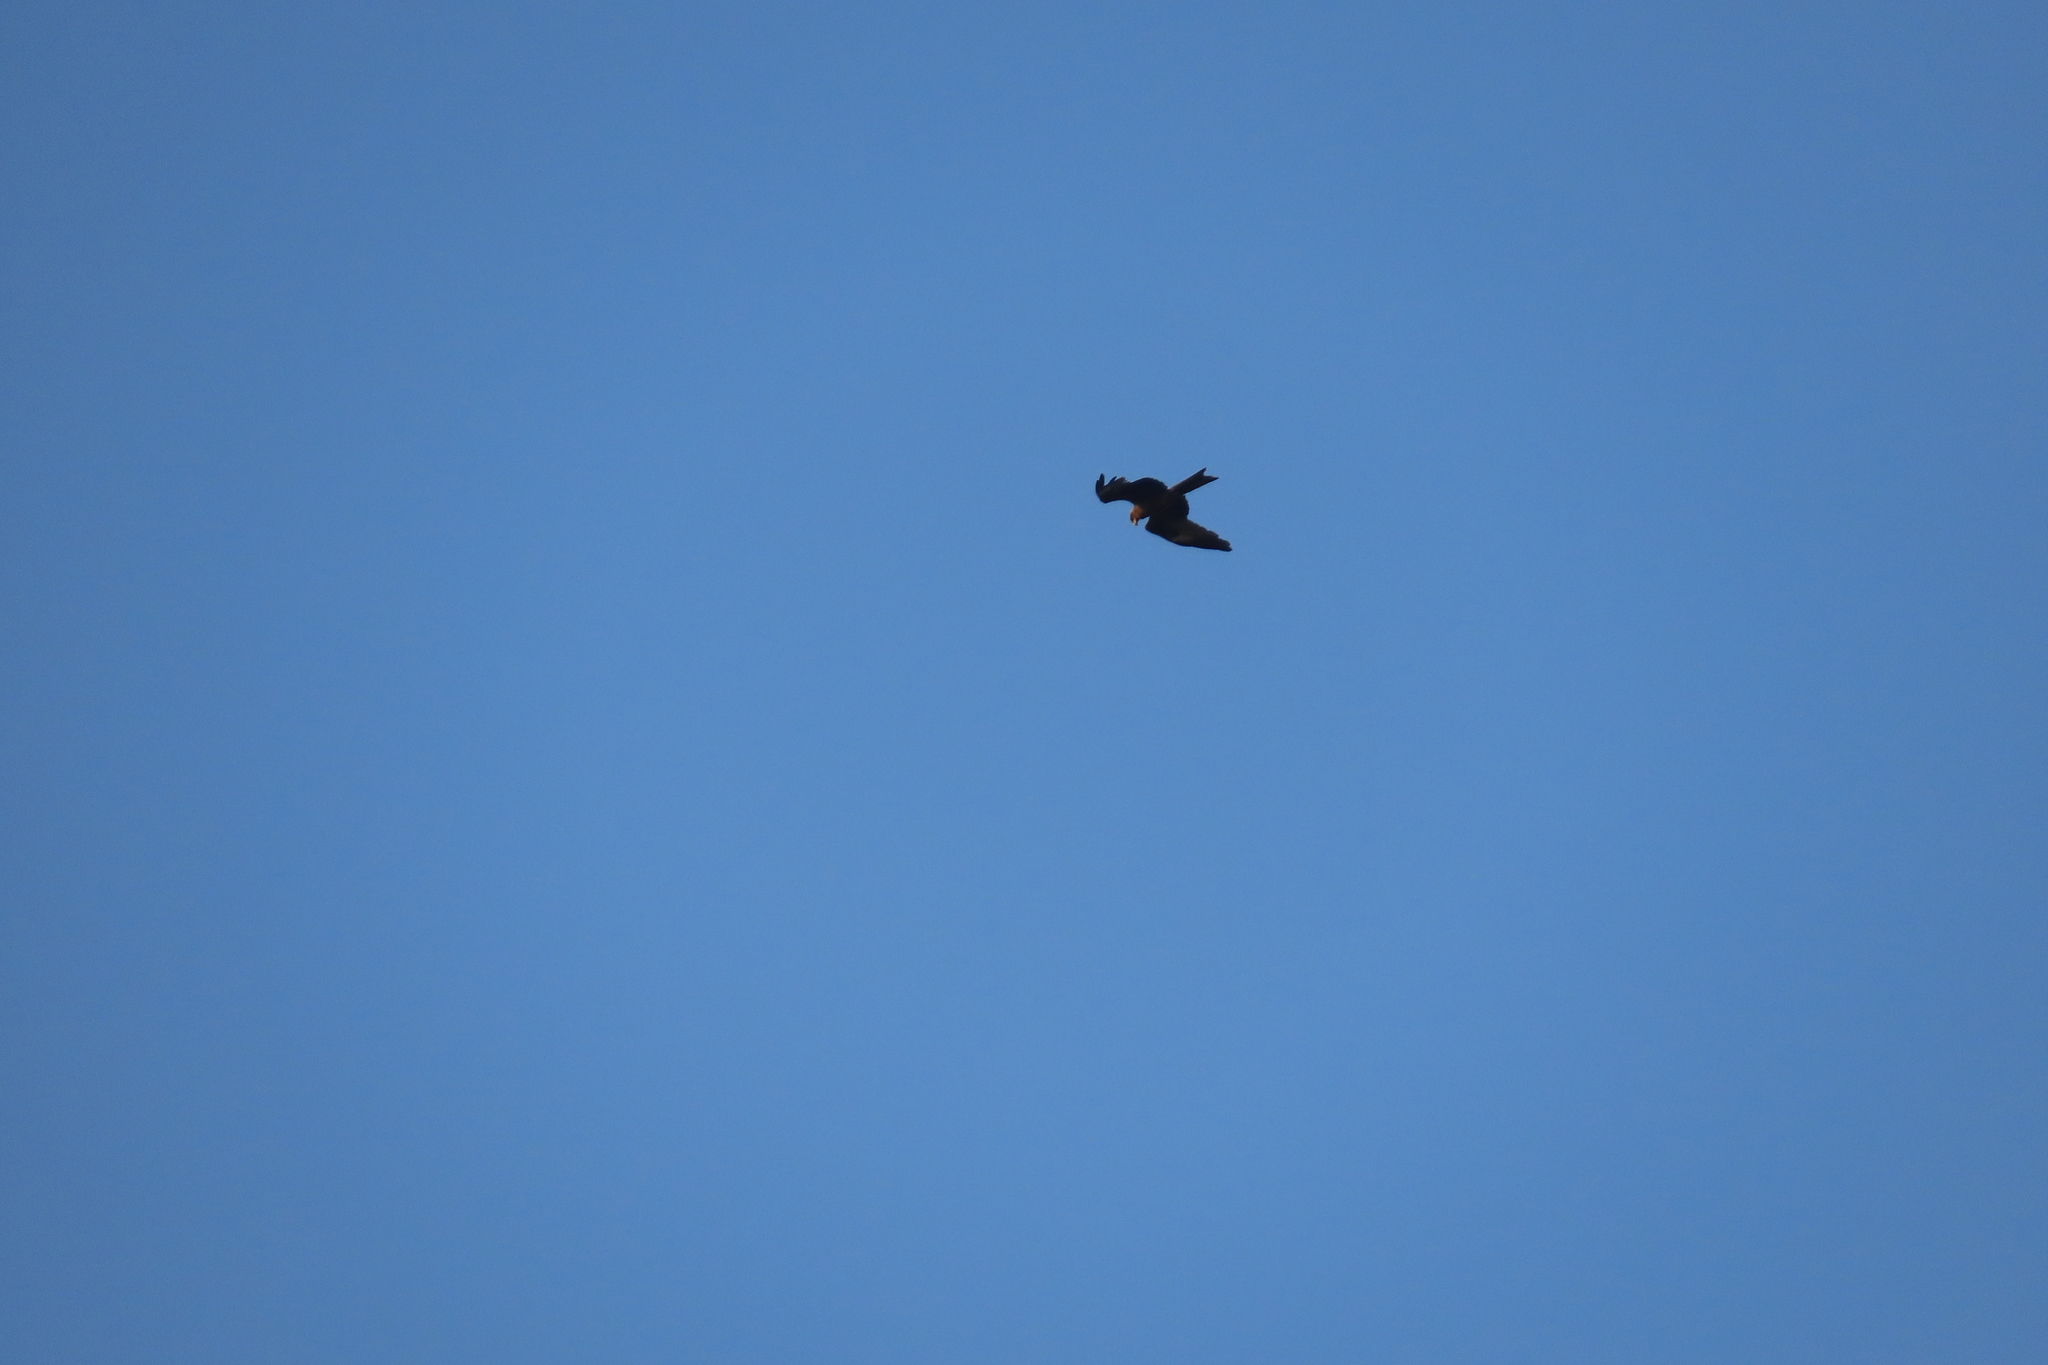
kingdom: Animalia
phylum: Chordata
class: Aves
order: Accipitriformes
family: Accipitridae
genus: Milvus
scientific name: Milvus migrans
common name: Black kite
